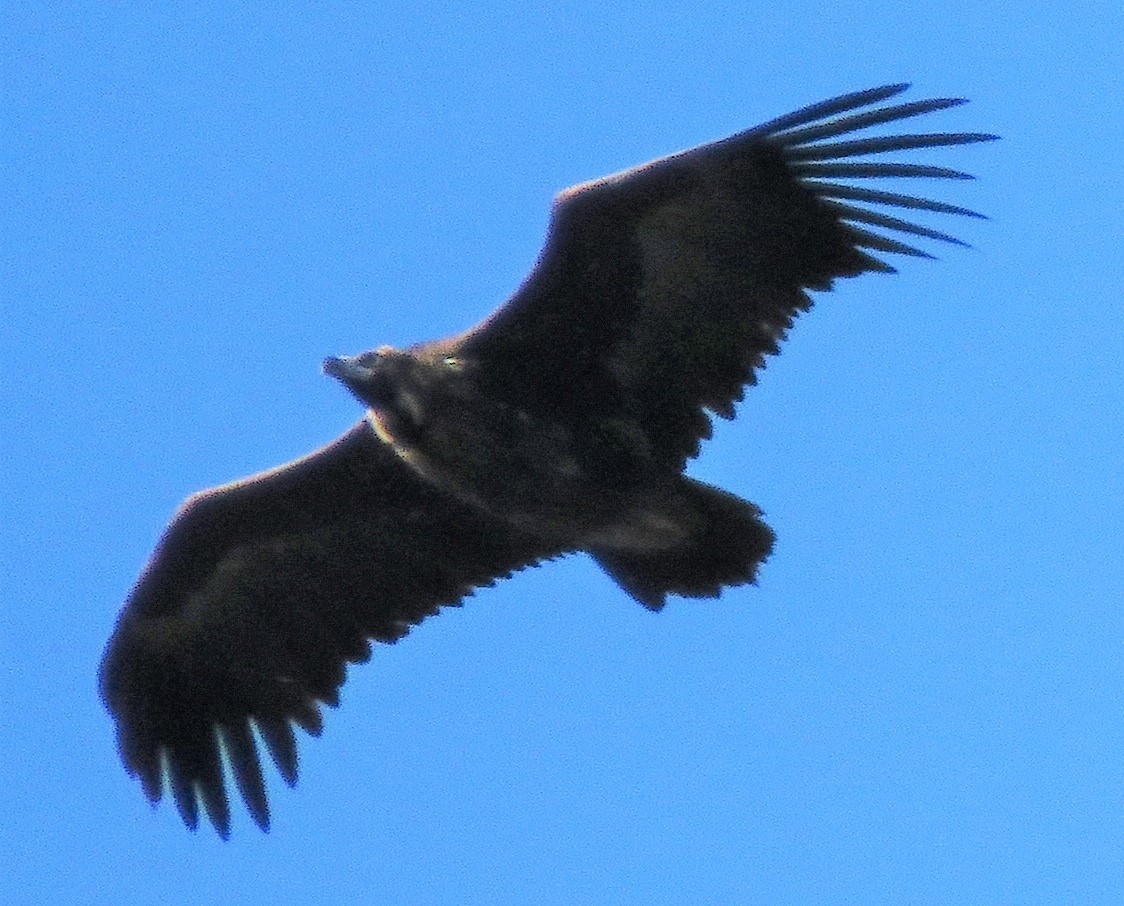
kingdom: Animalia
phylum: Chordata
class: Aves
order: Accipitriformes
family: Accipitridae
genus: Aegypius
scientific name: Aegypius monachus
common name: Cinereous vulture
